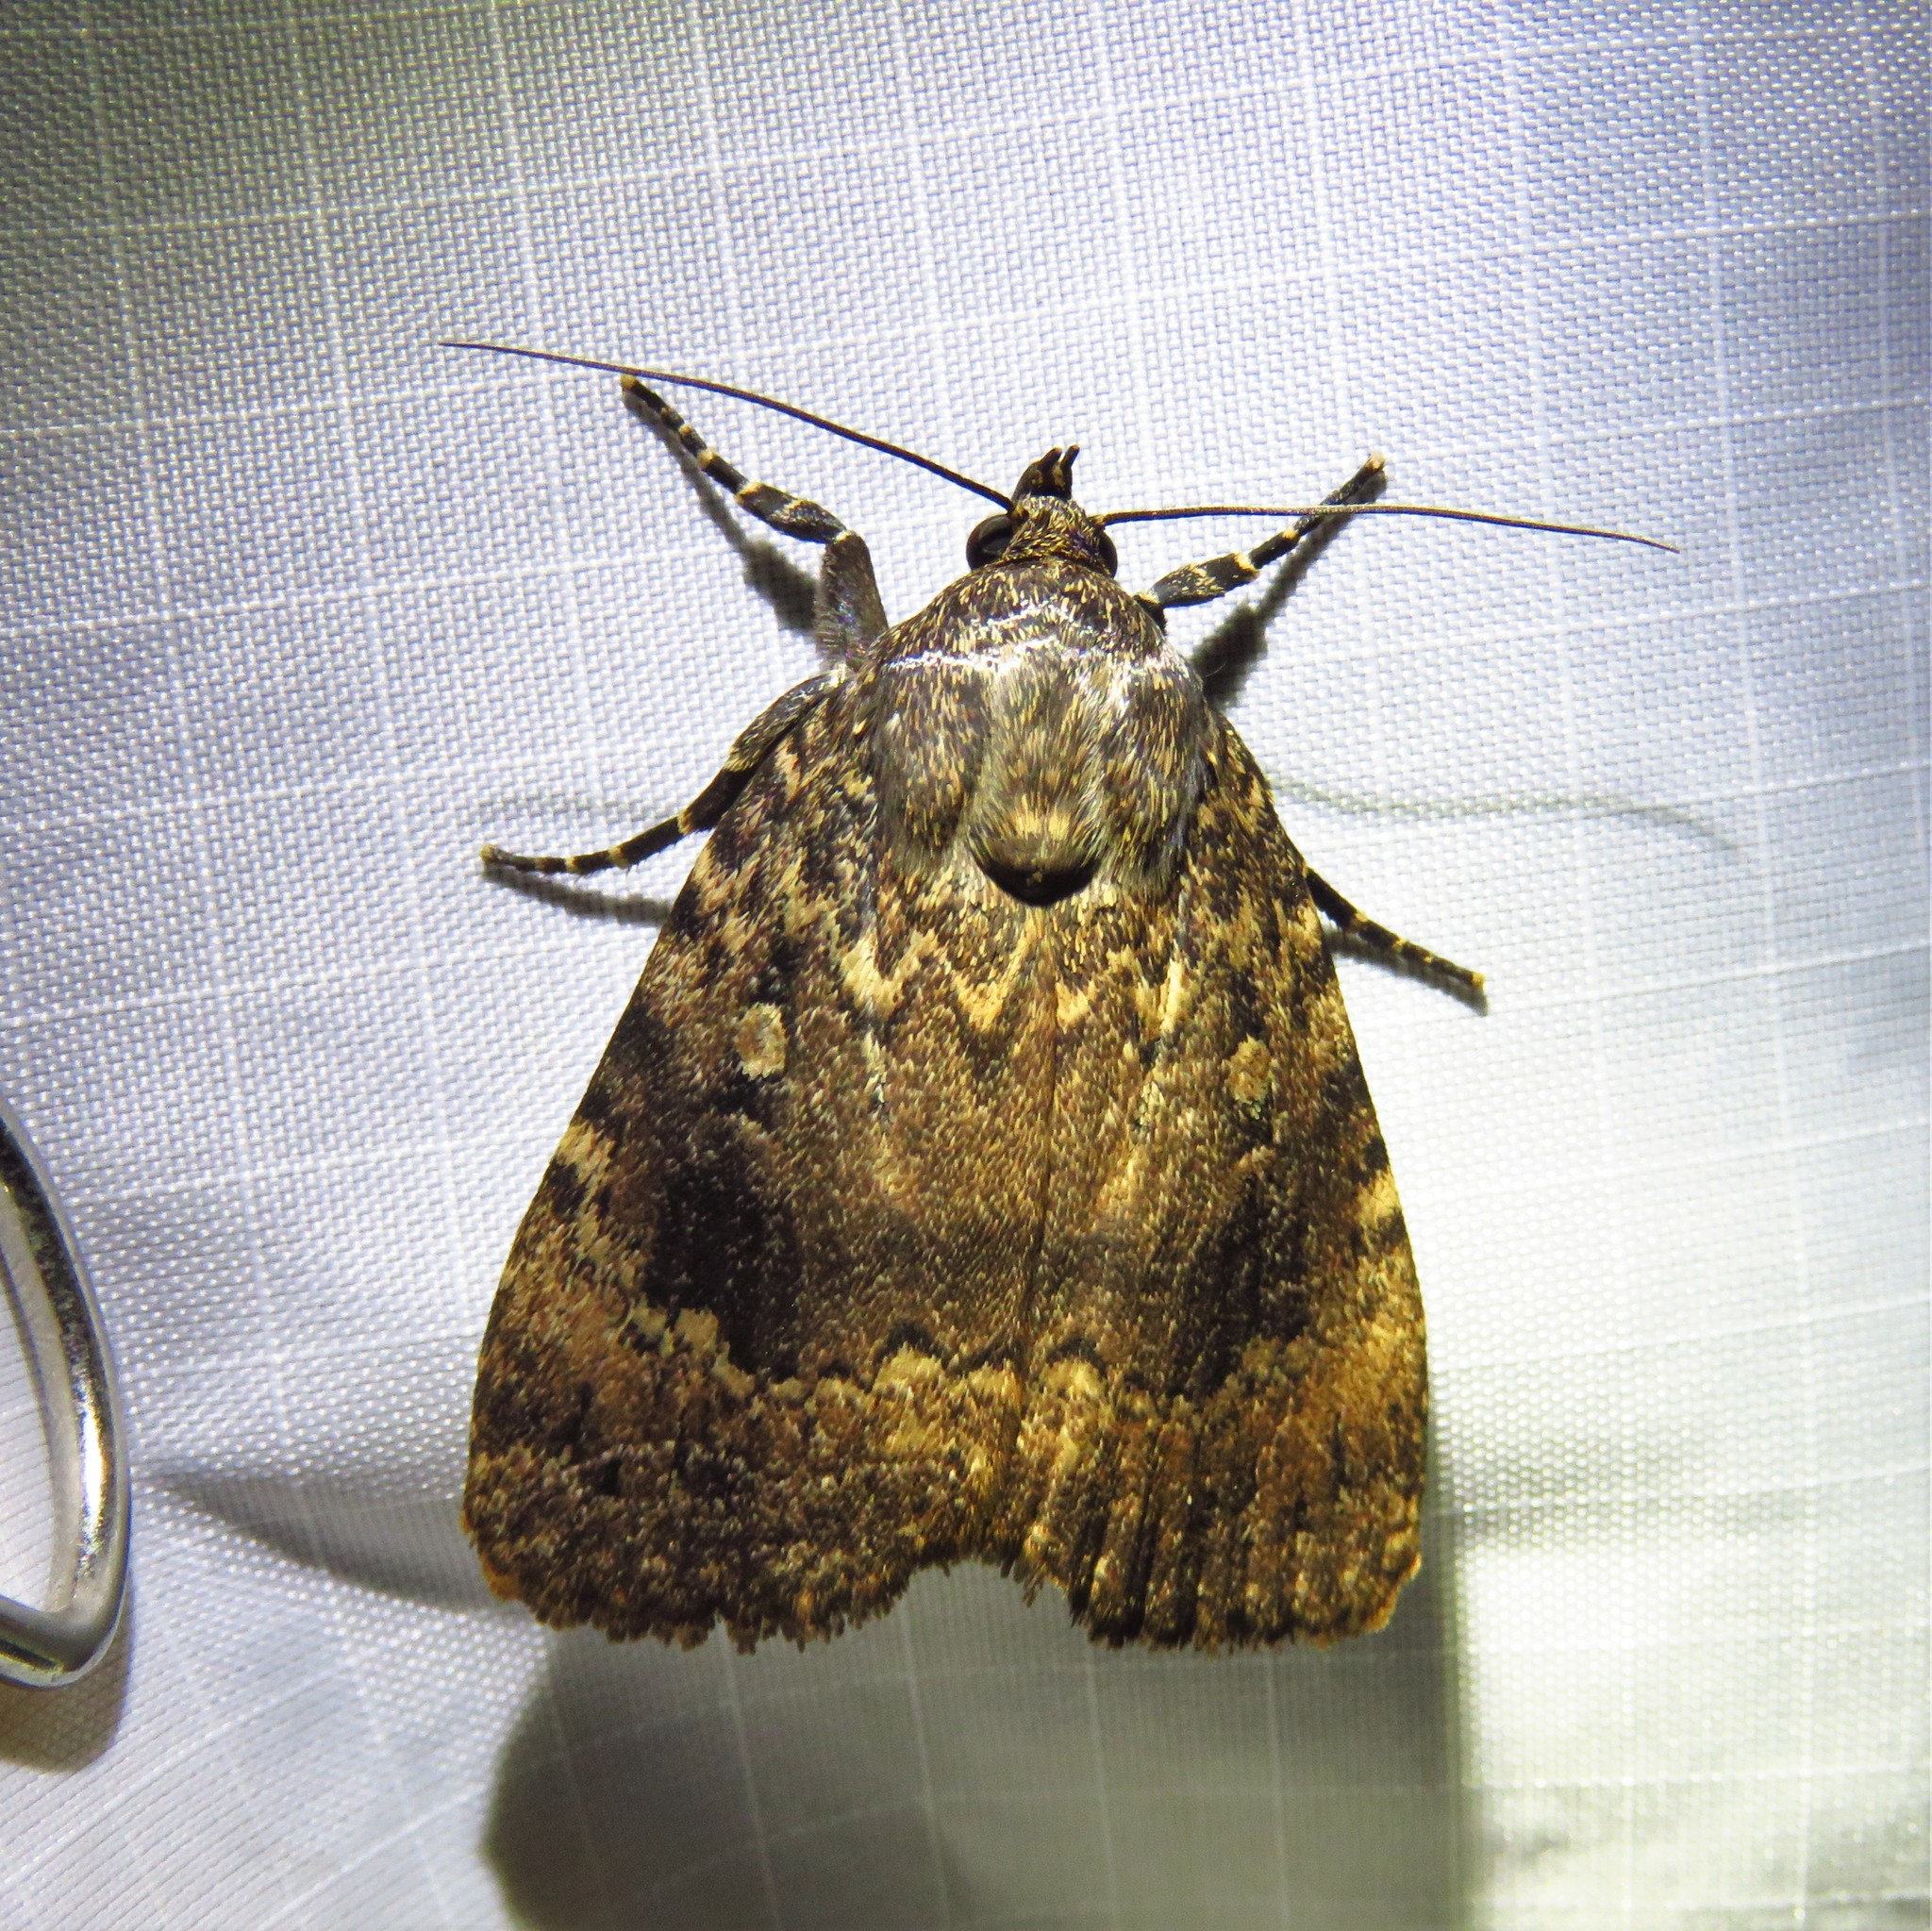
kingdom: Animalia
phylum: Arthropoda
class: Insecta
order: Lepidoptera
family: Noctuidae
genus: Amphipyra
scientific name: Amphipyra pyramidoides
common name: American copper underwing
